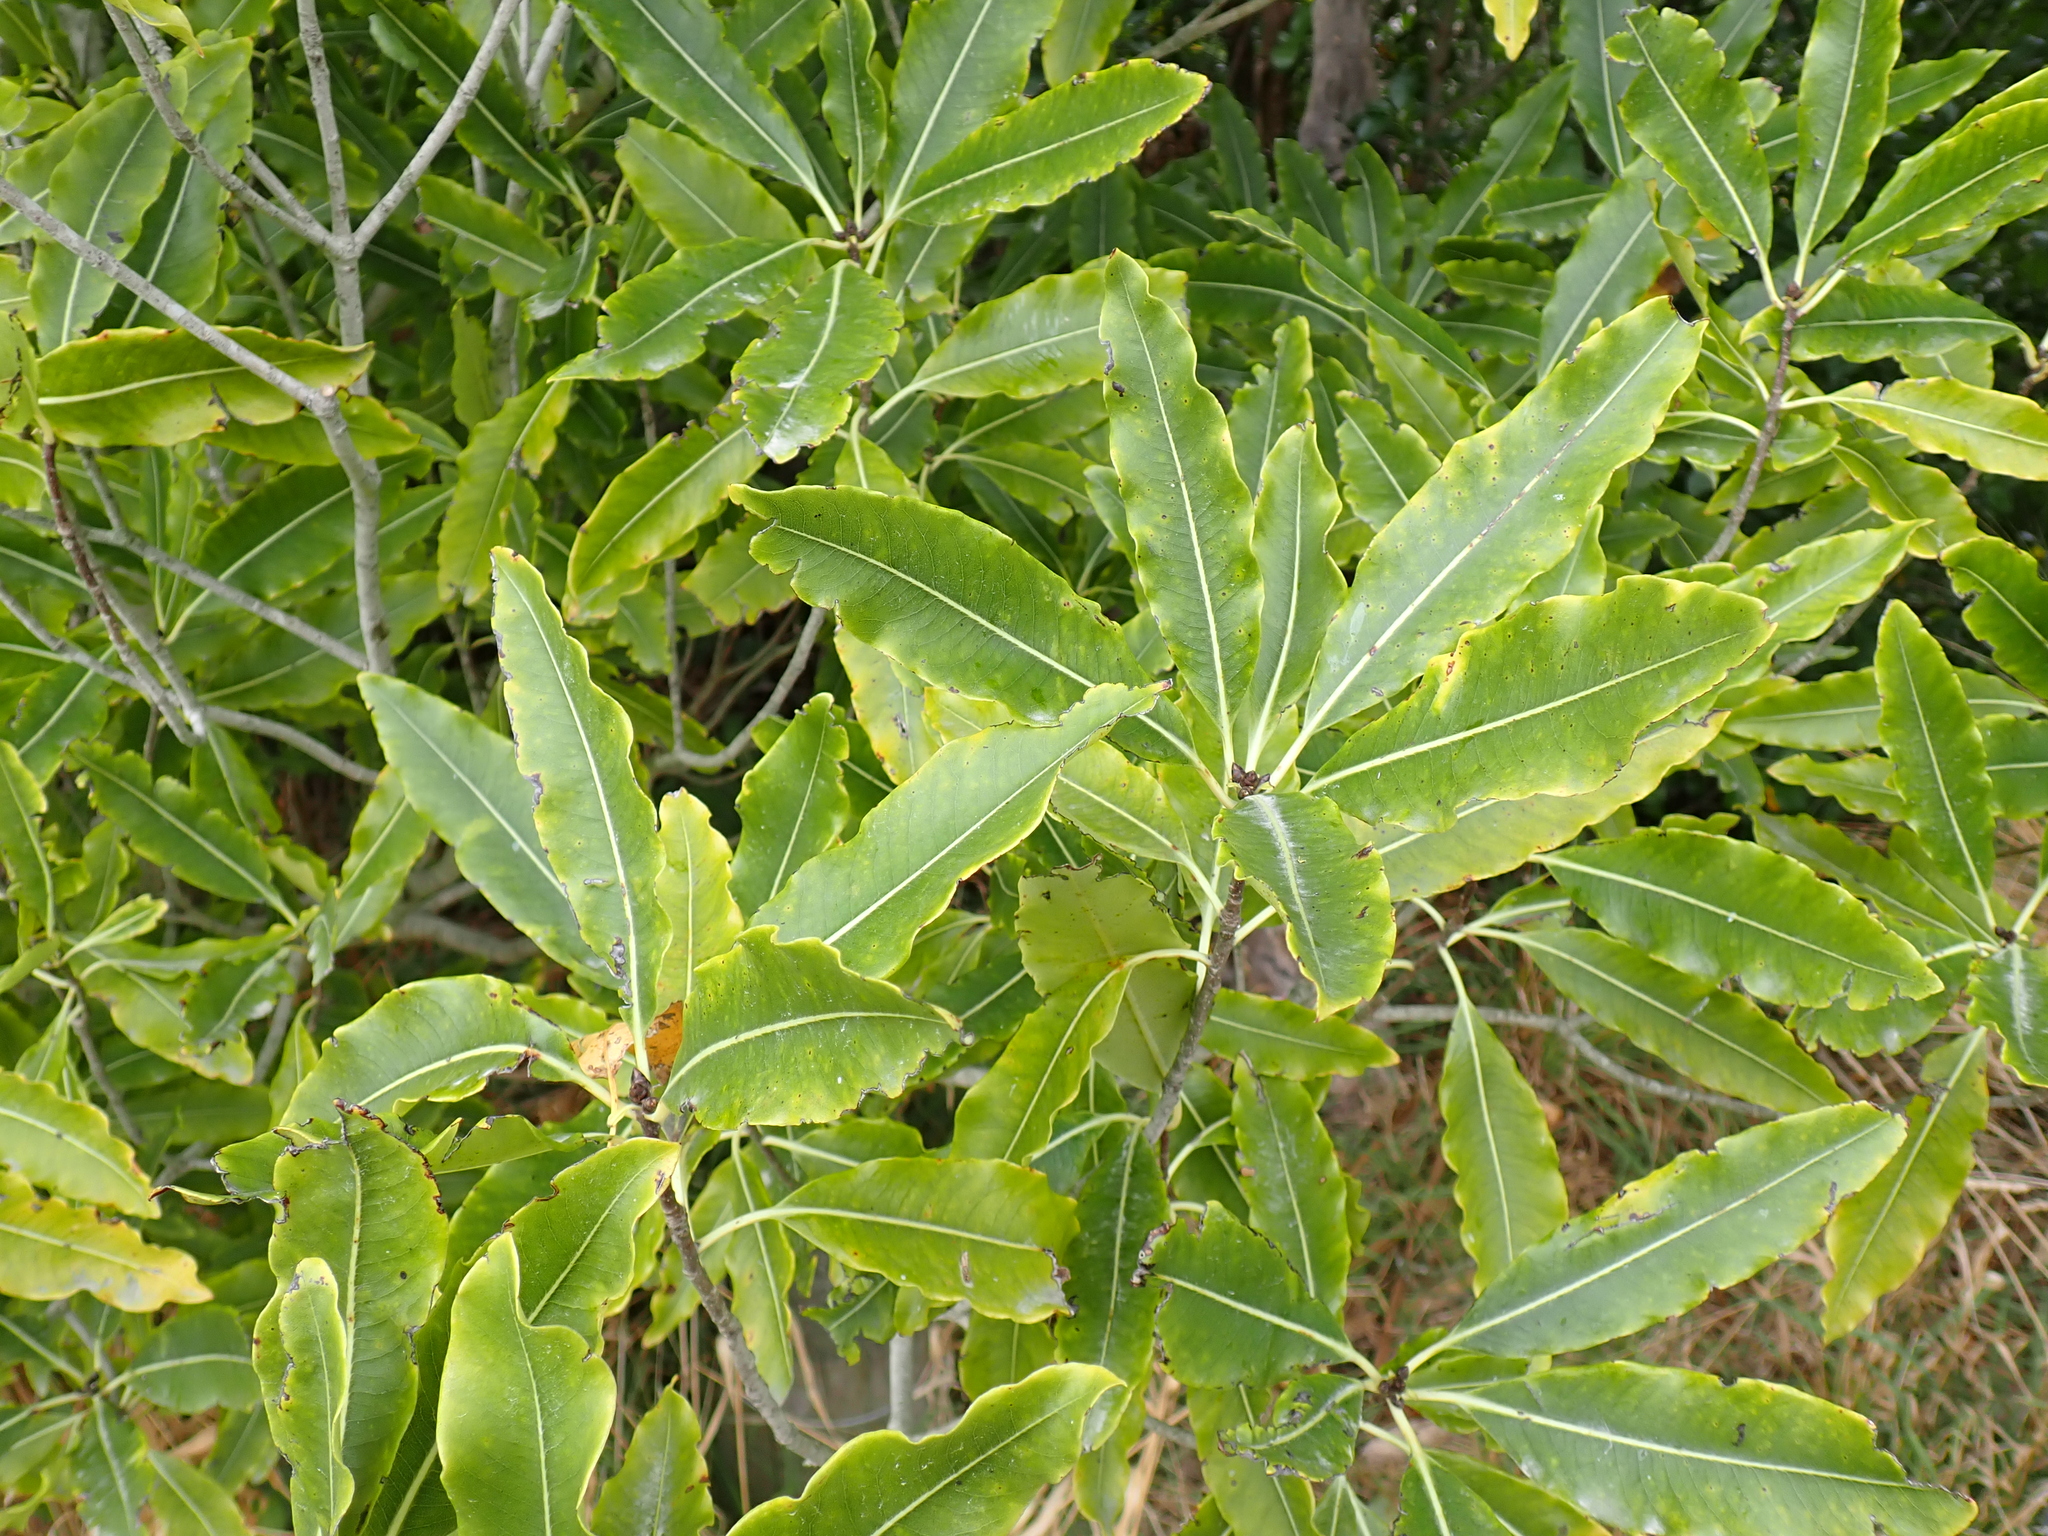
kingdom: Plantae
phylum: Tracheophyta
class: Magnoliopsida
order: Apiales
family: Pittosporaceae
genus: Pittosporum
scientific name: Pittosporum eugenioides
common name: Lemonwood
